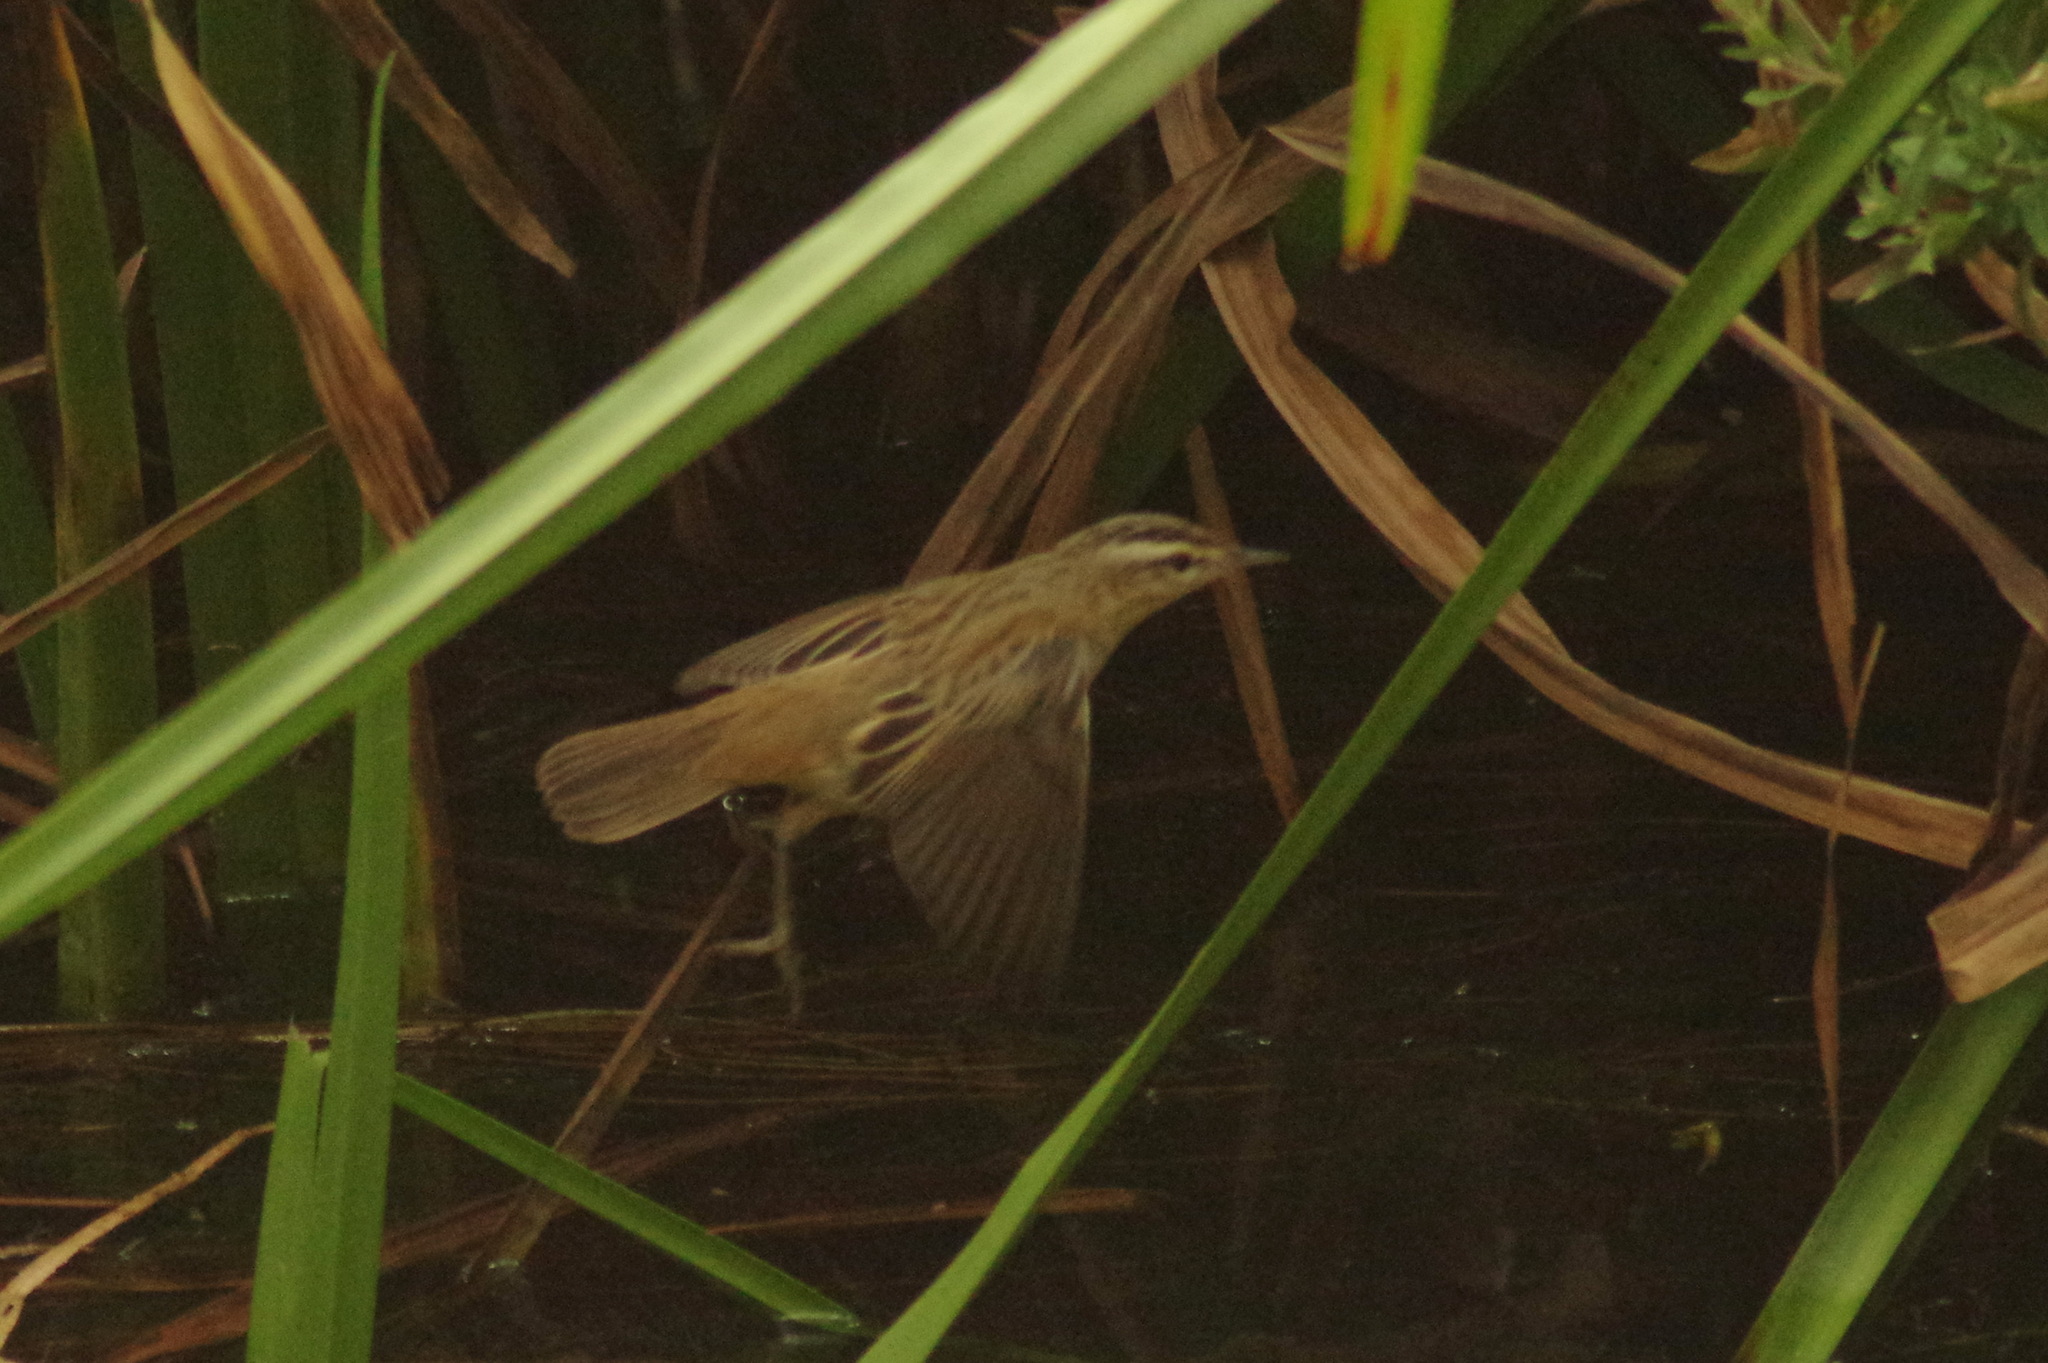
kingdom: Animalia
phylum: Chordata
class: Aves
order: Passeriformes
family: Acrocephalidae
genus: Acrocephalus
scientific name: Acrocephalus schoenobaenus
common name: Sedge warbler
